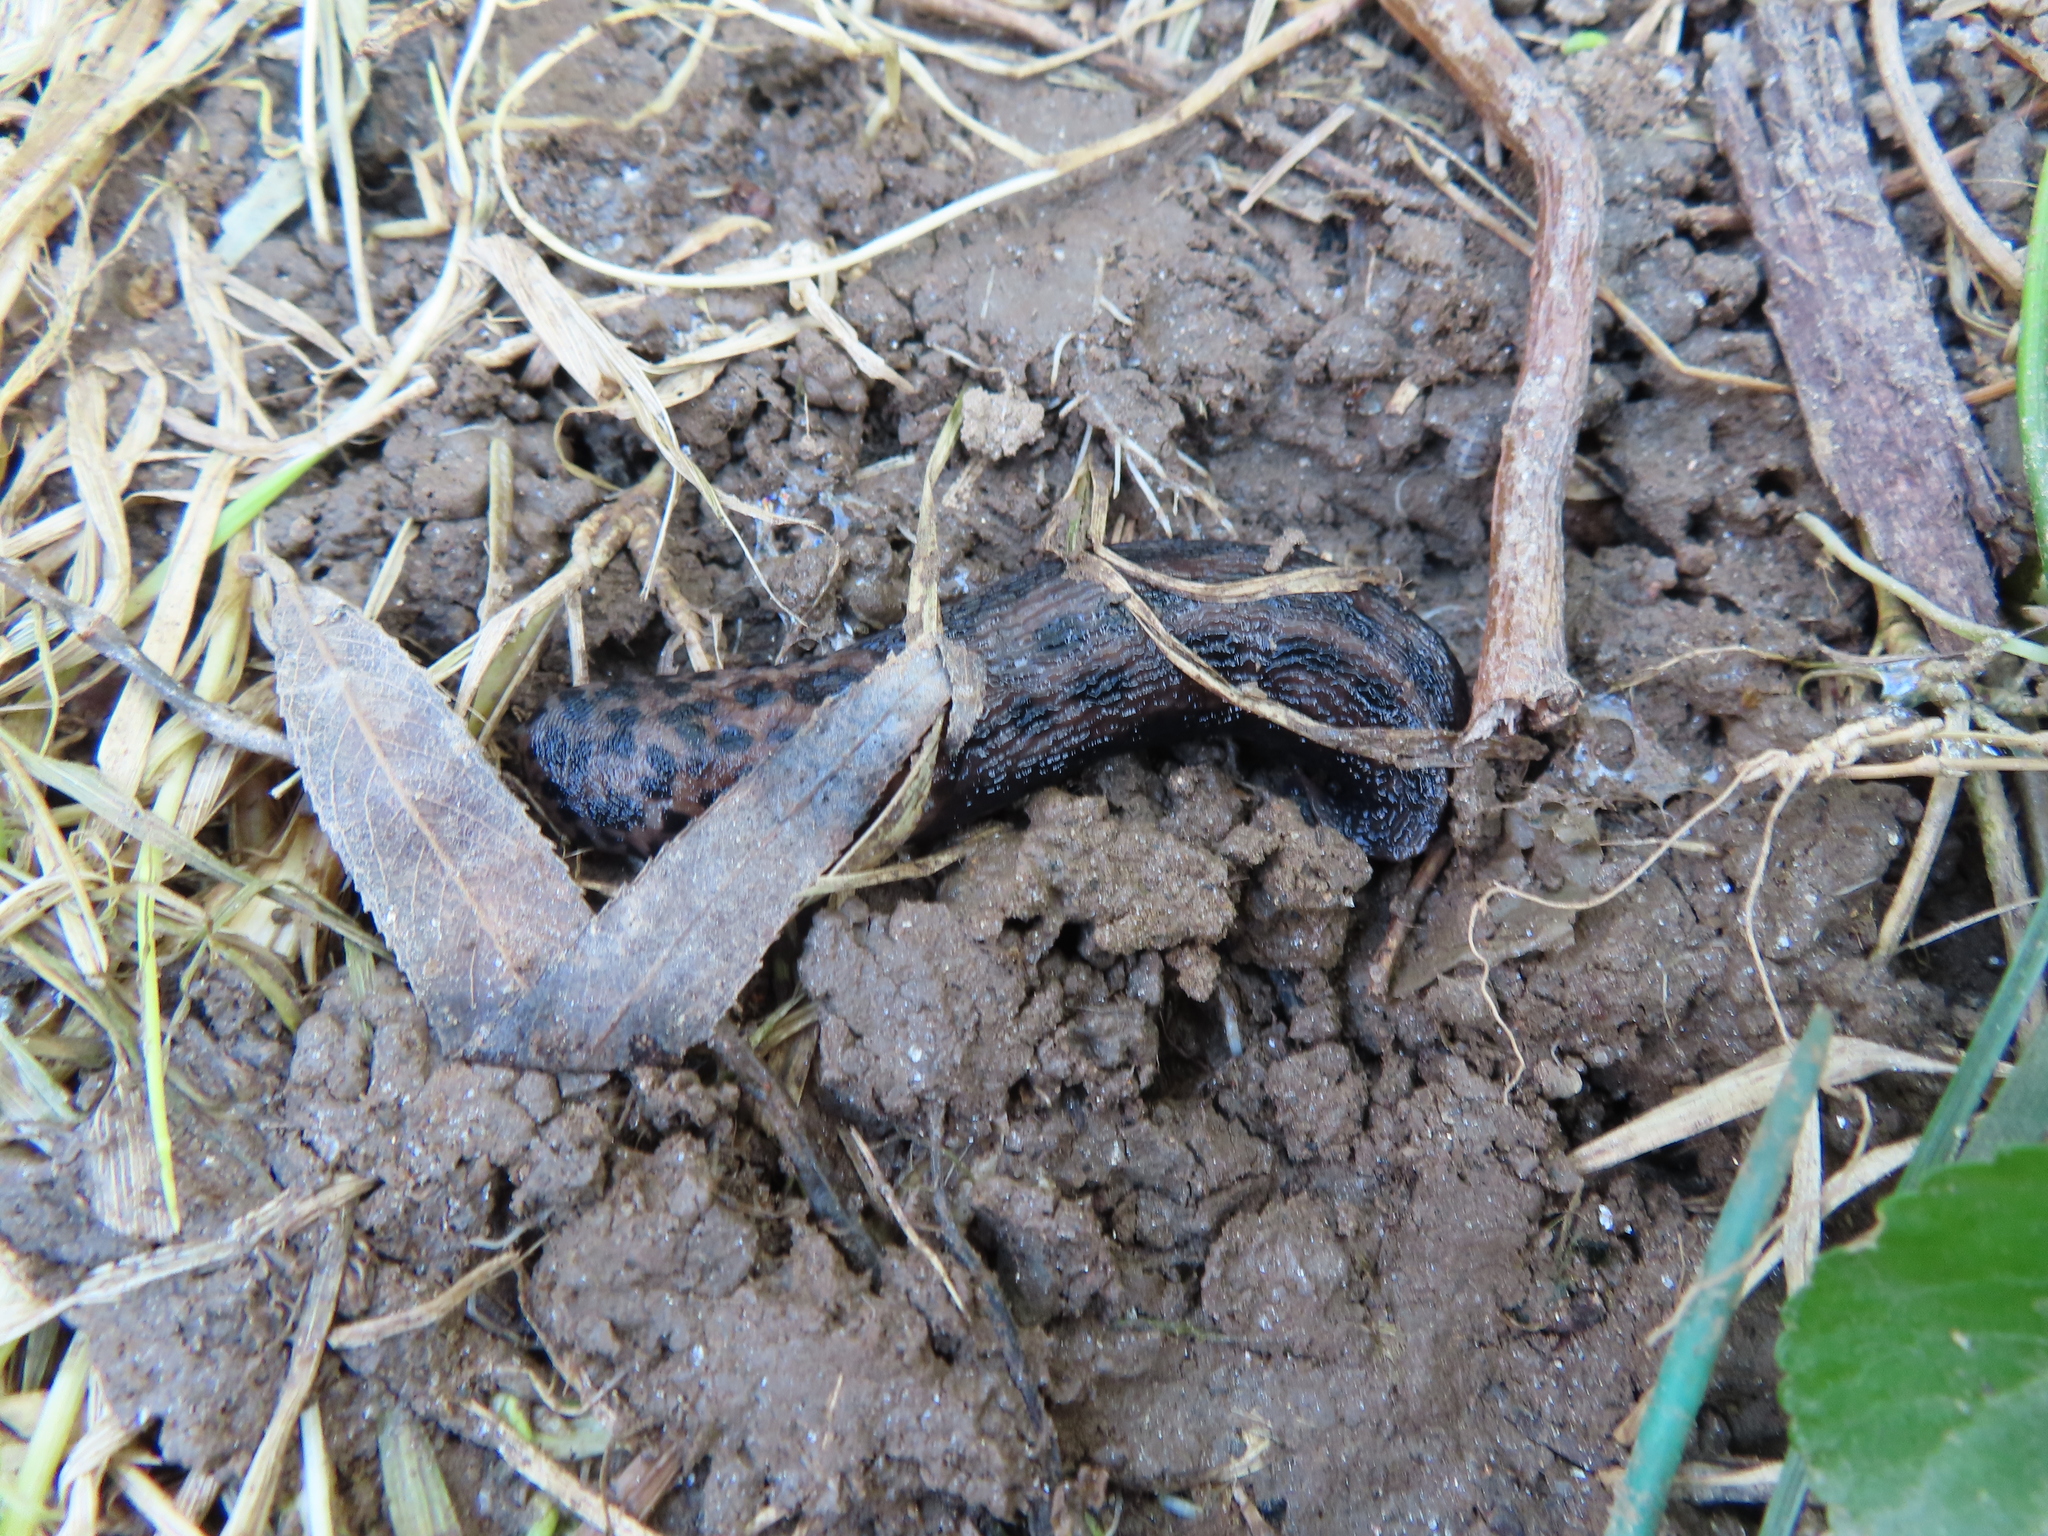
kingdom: Animalia
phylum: Mollusca
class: Gastropoda
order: Stylommatophora
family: Limacidae
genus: Limax
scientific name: Limax maximus
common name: Great grey slug
